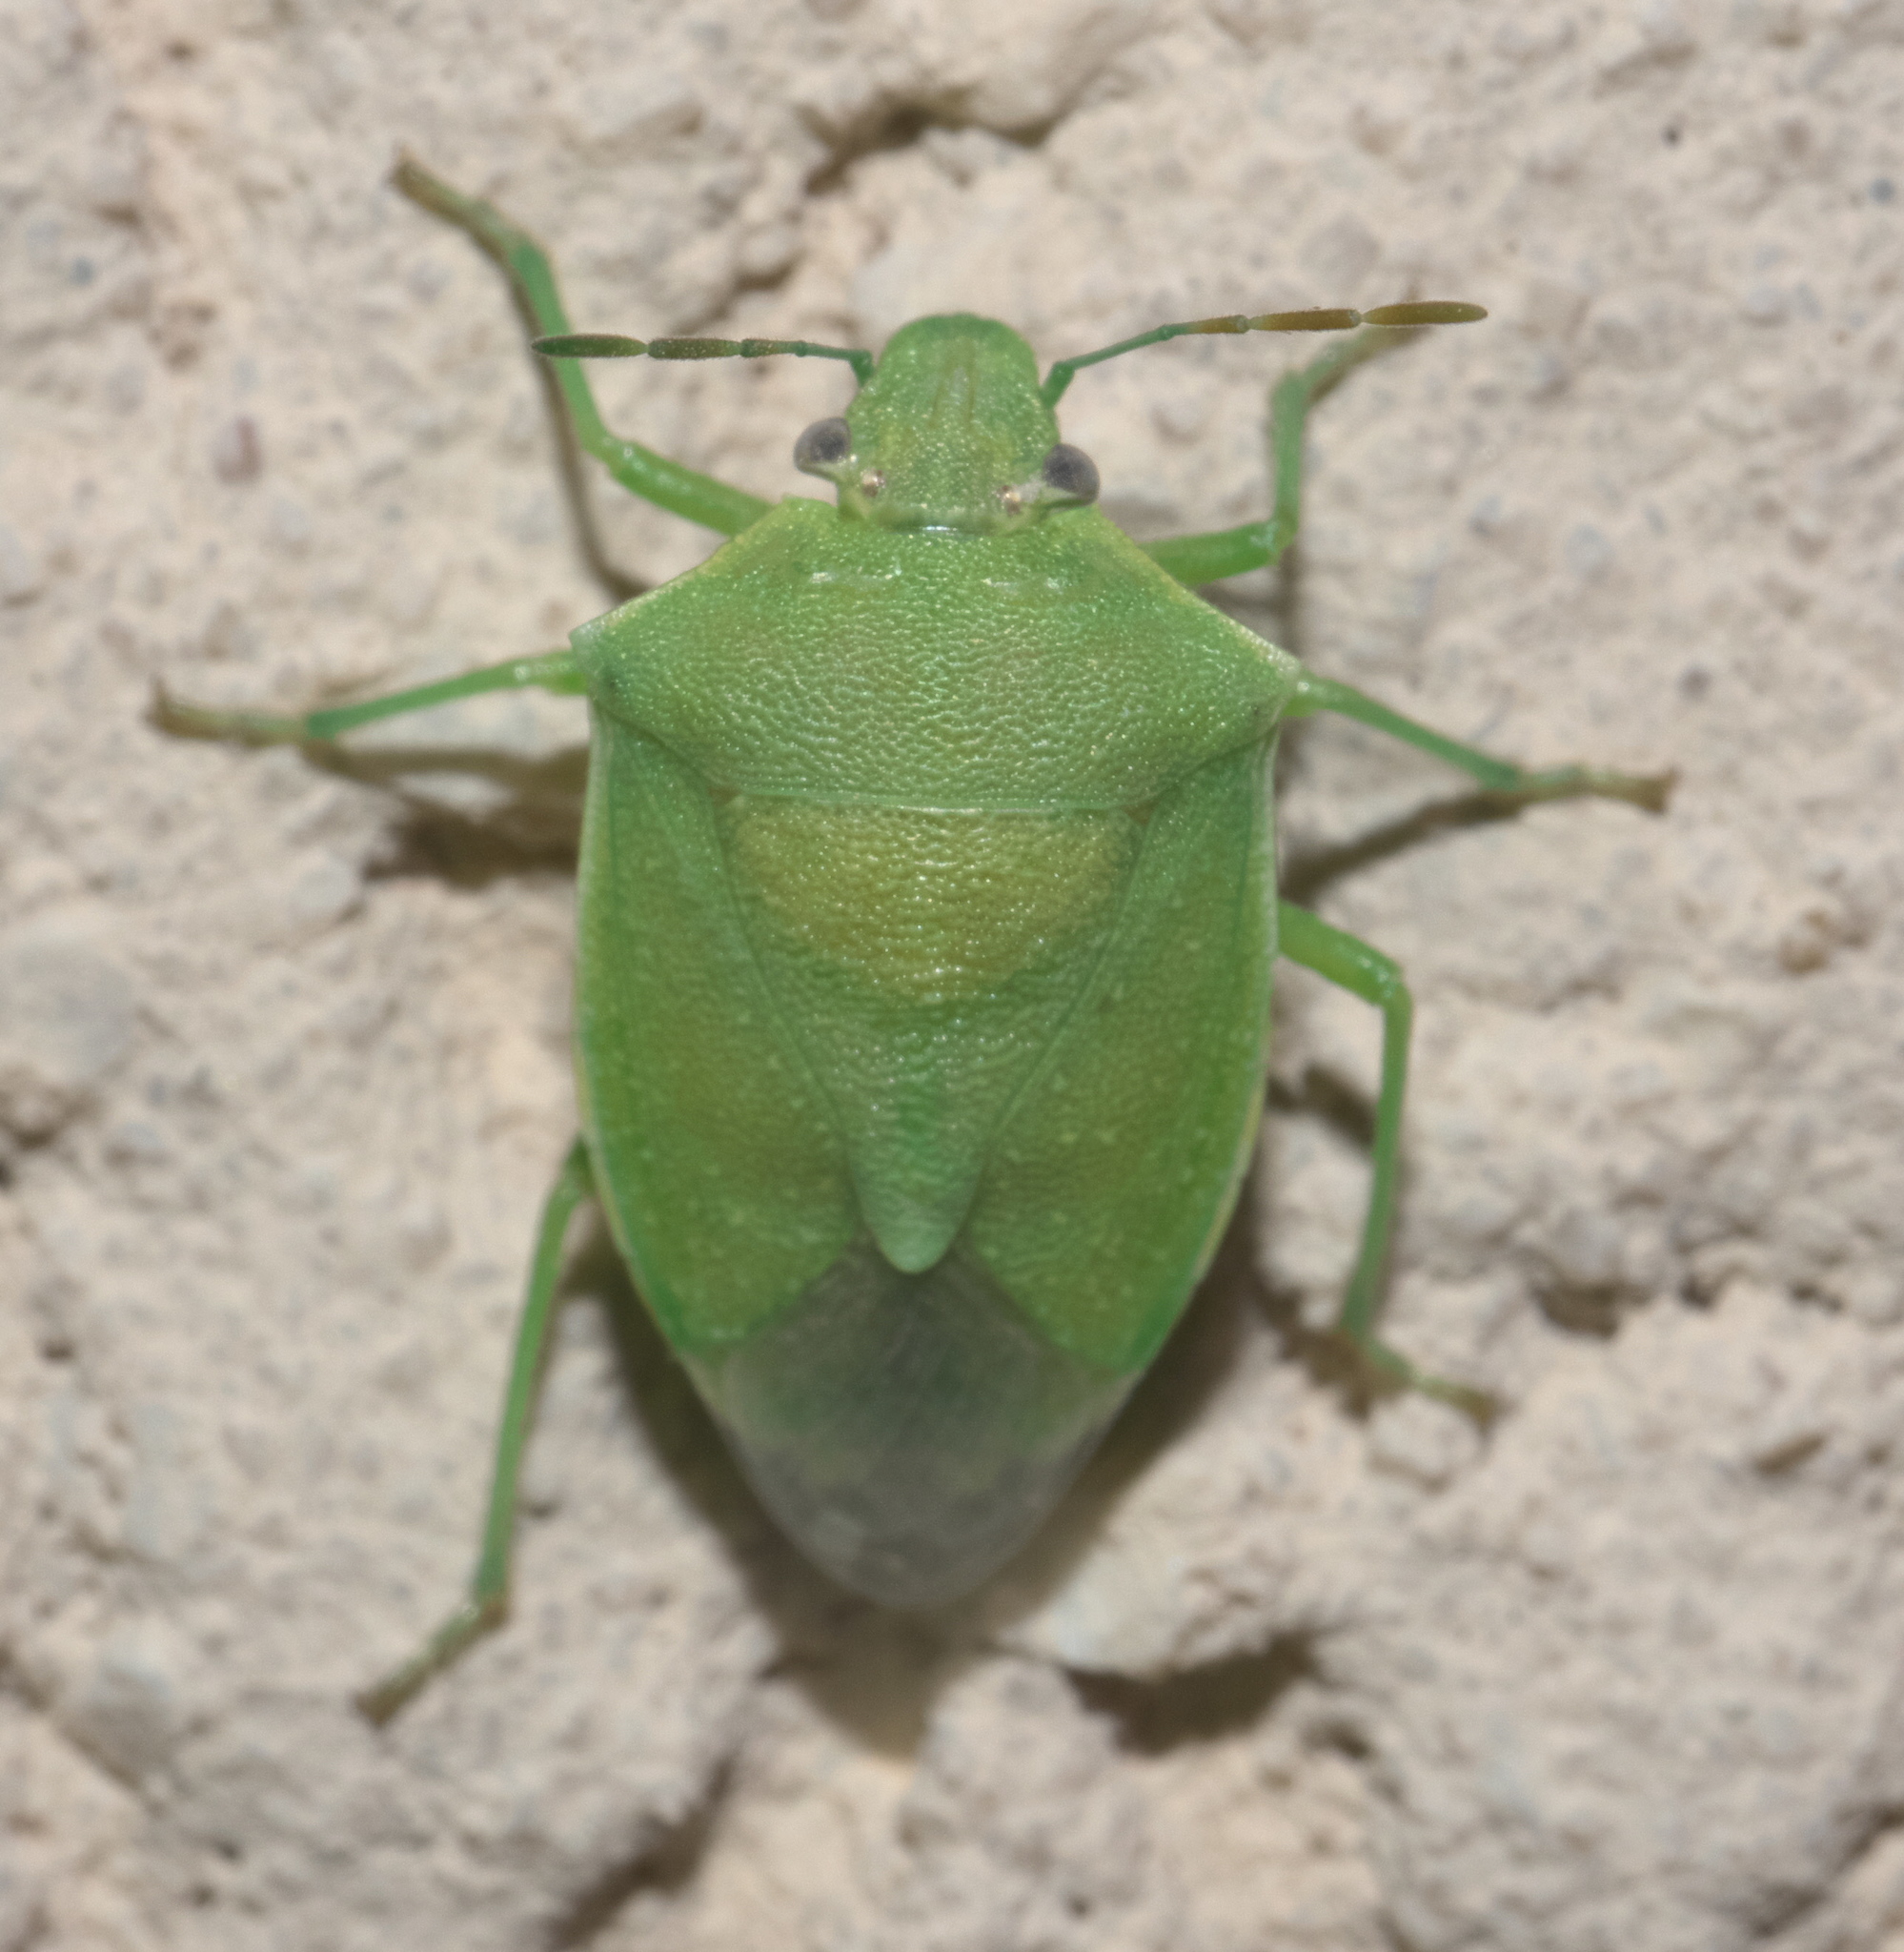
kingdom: Animalia
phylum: Arthropoda
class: Insecta
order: Hemiptera
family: Pentatomidae
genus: Thyanta
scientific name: Thyanta accerra
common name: Stink bug
